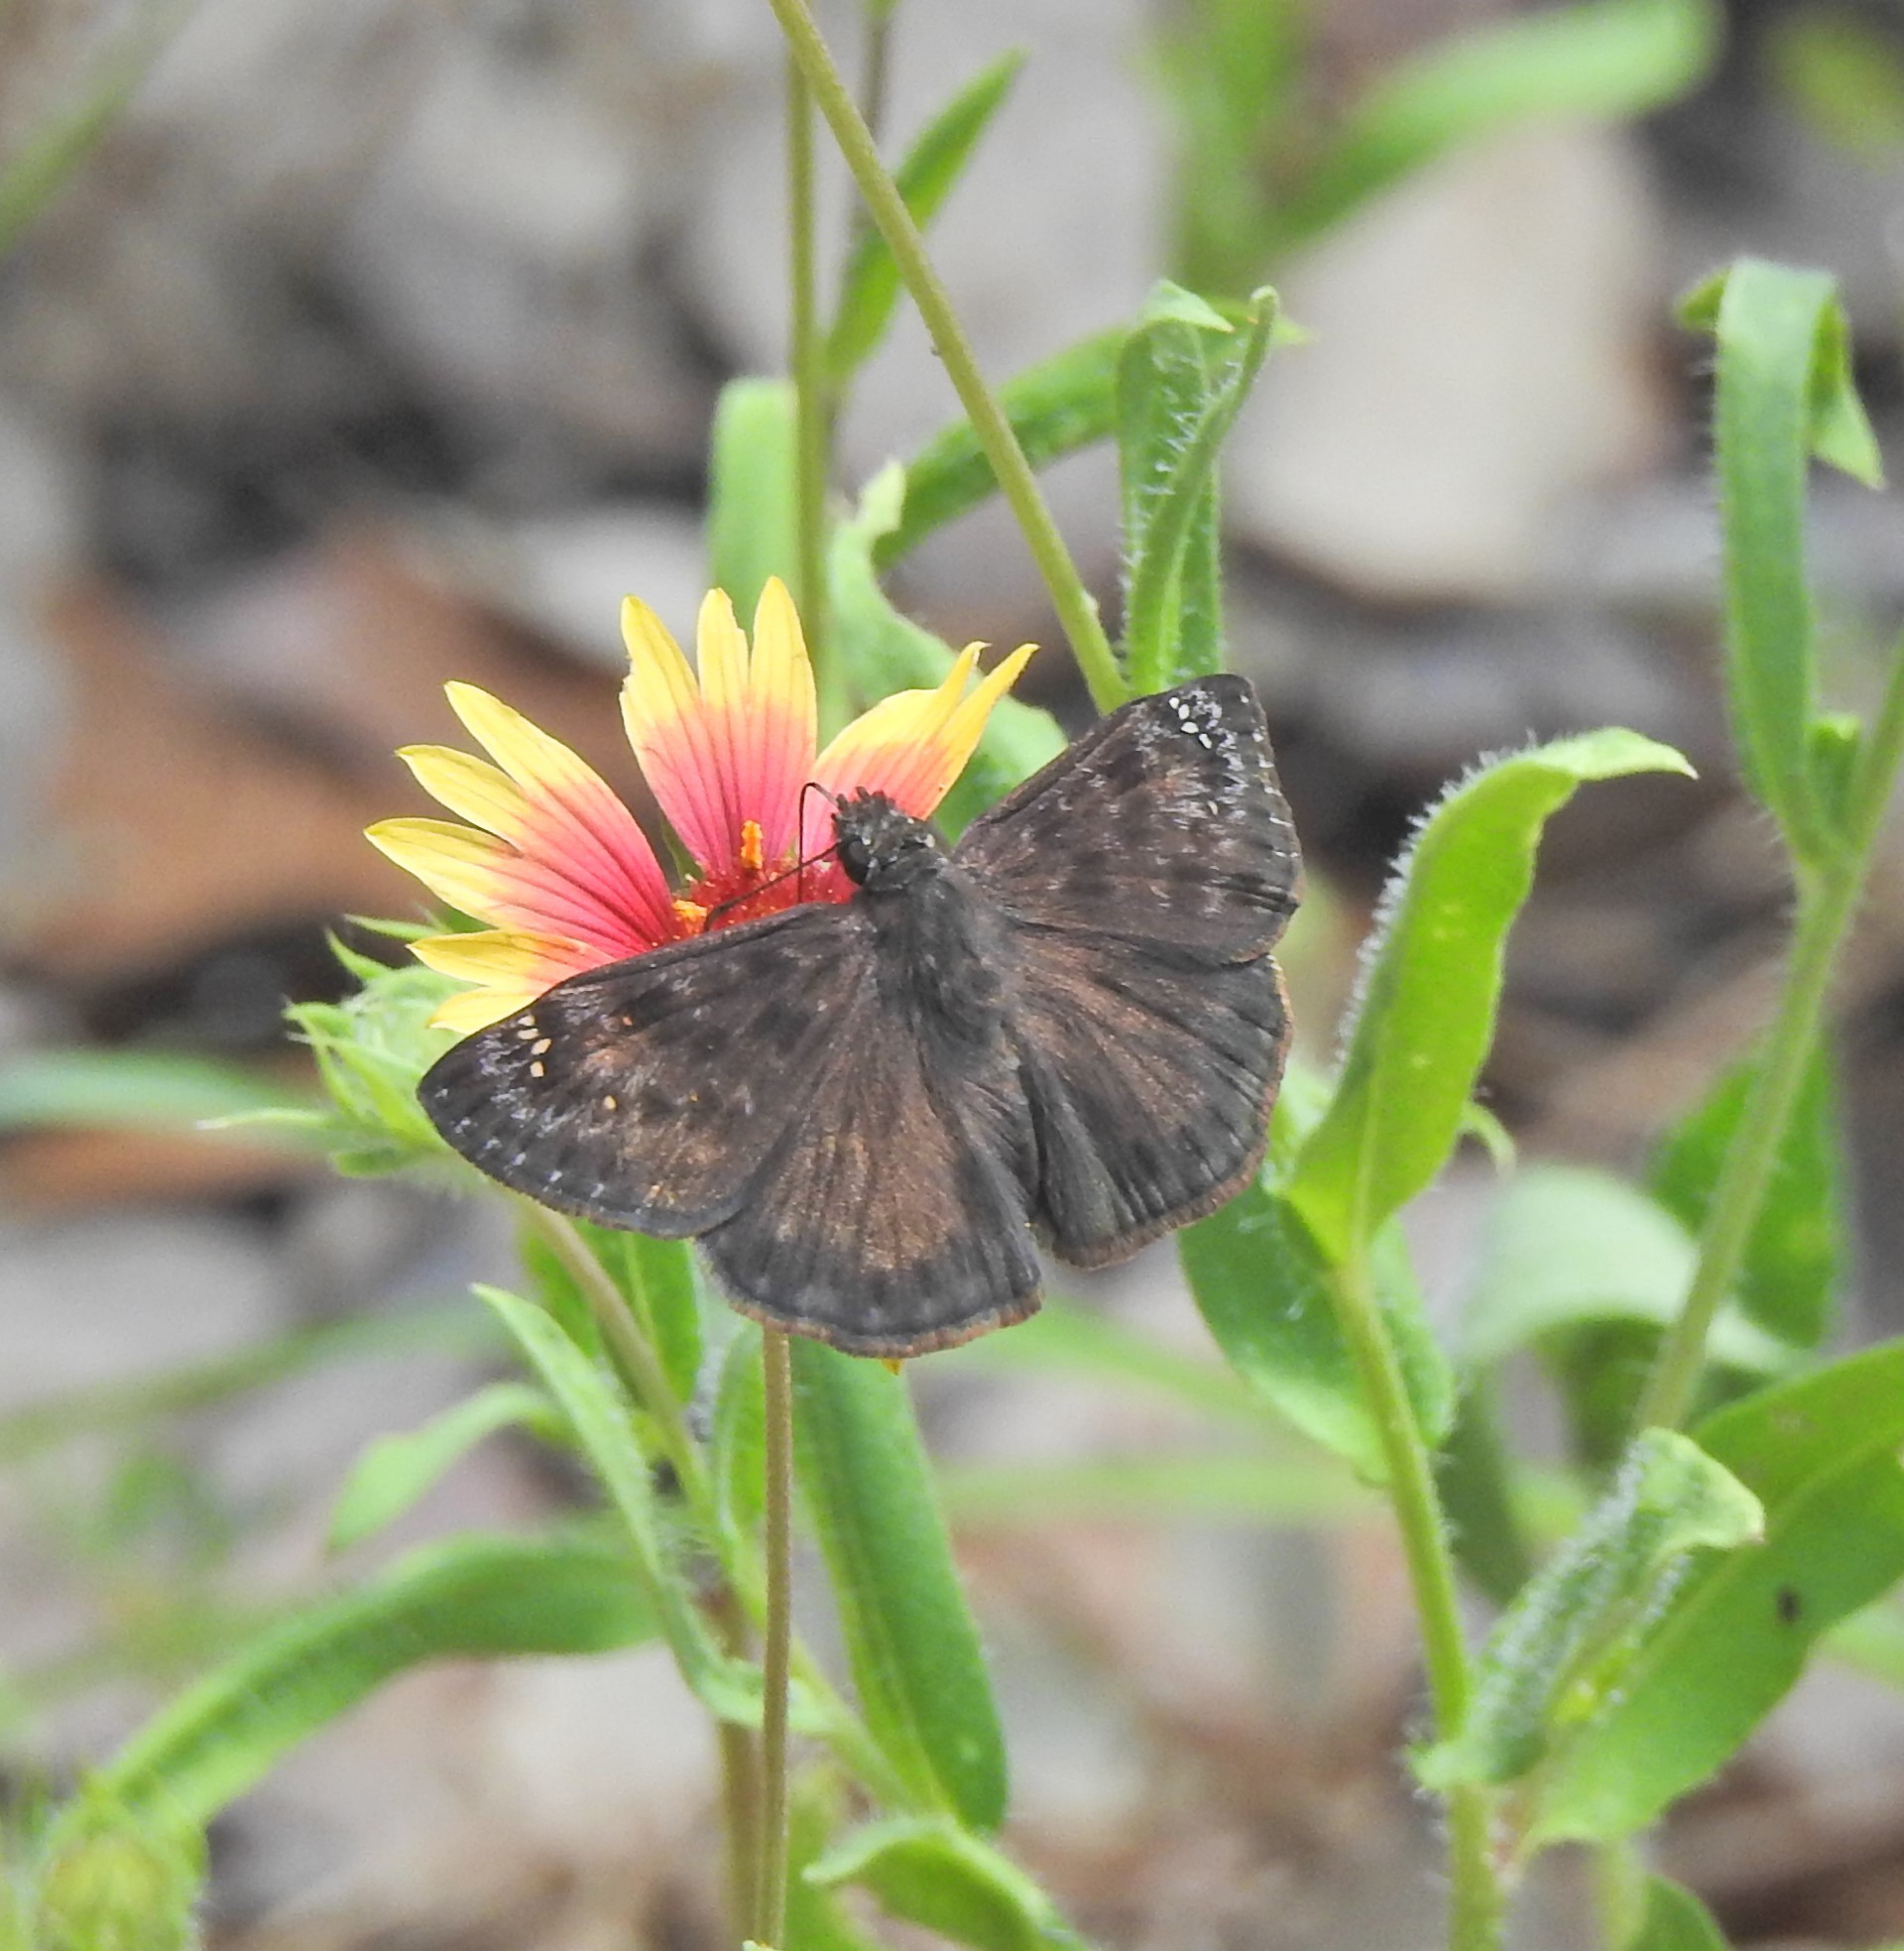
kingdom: Animalia
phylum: Arthropoda
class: Insecta
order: Lepidoptera
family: Hesperiidae
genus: Erynnis
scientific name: Erynnis horatius
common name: Horace's duskywing
